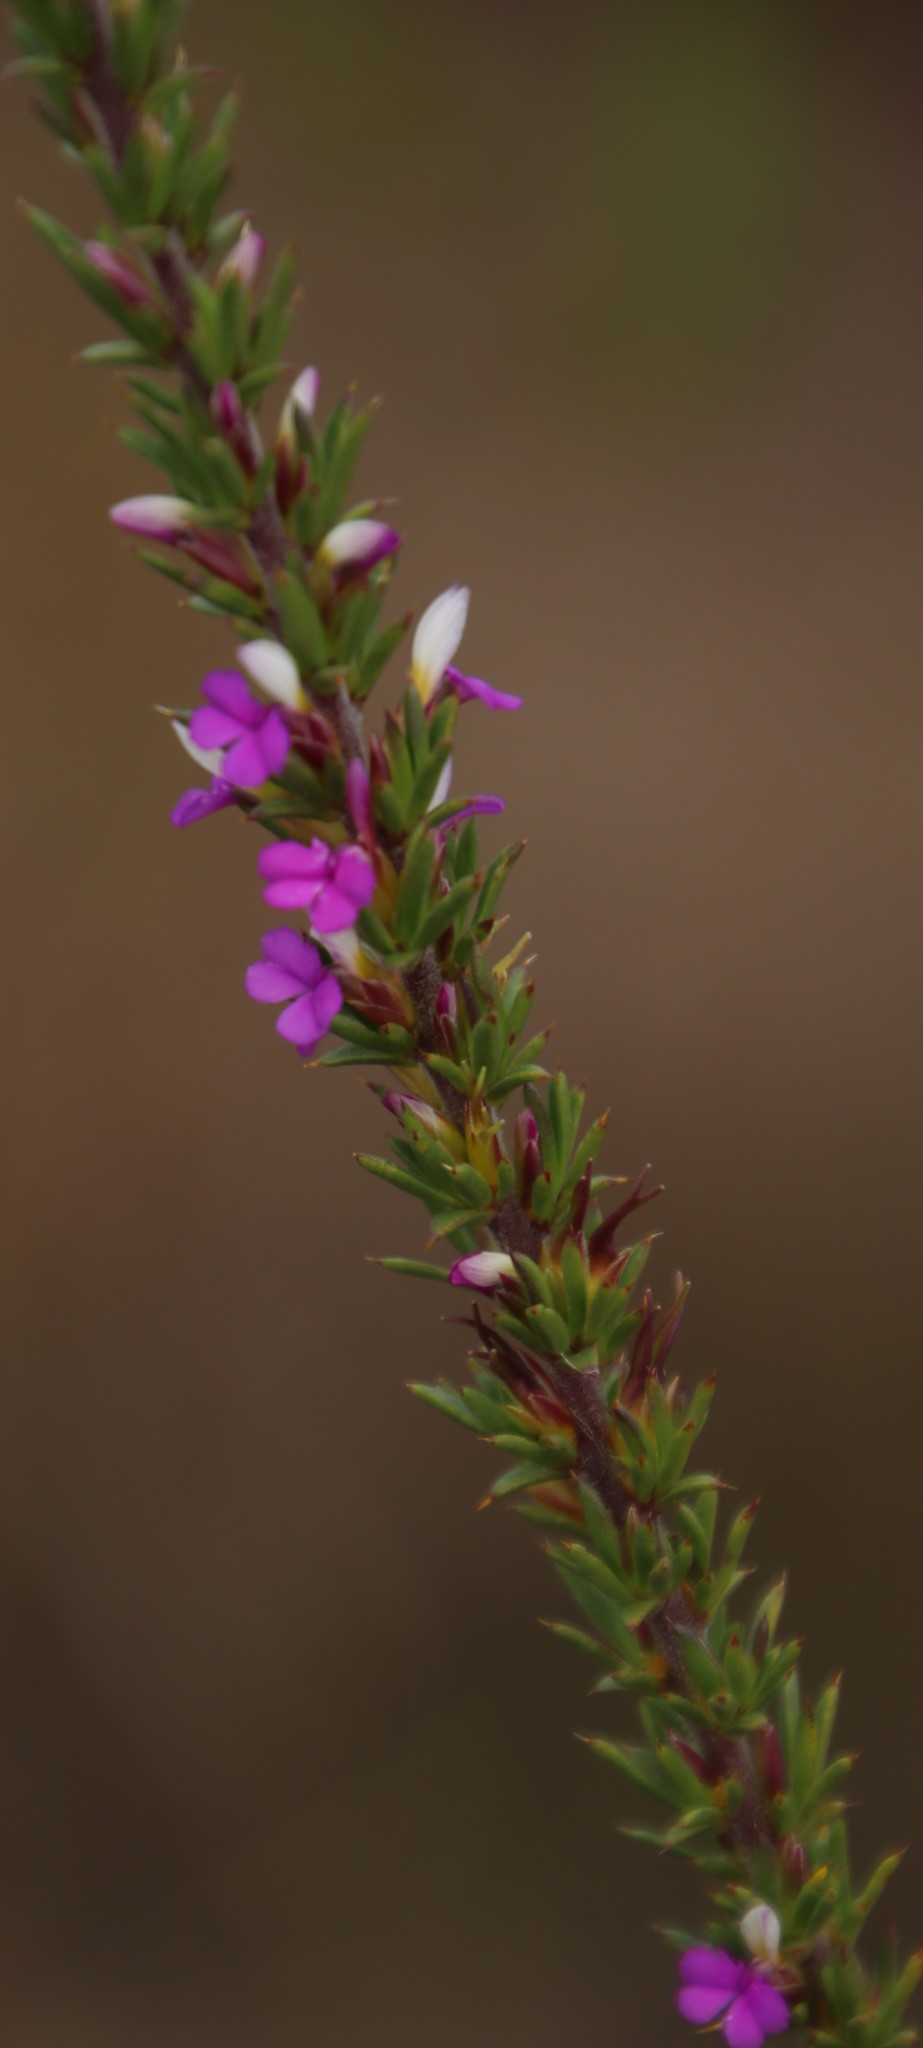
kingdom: Plantae
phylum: Tracheophyta
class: Magnoliopsida
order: Fabales
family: Polygalaceae
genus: Muraltia
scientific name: Muraltia heisteria
